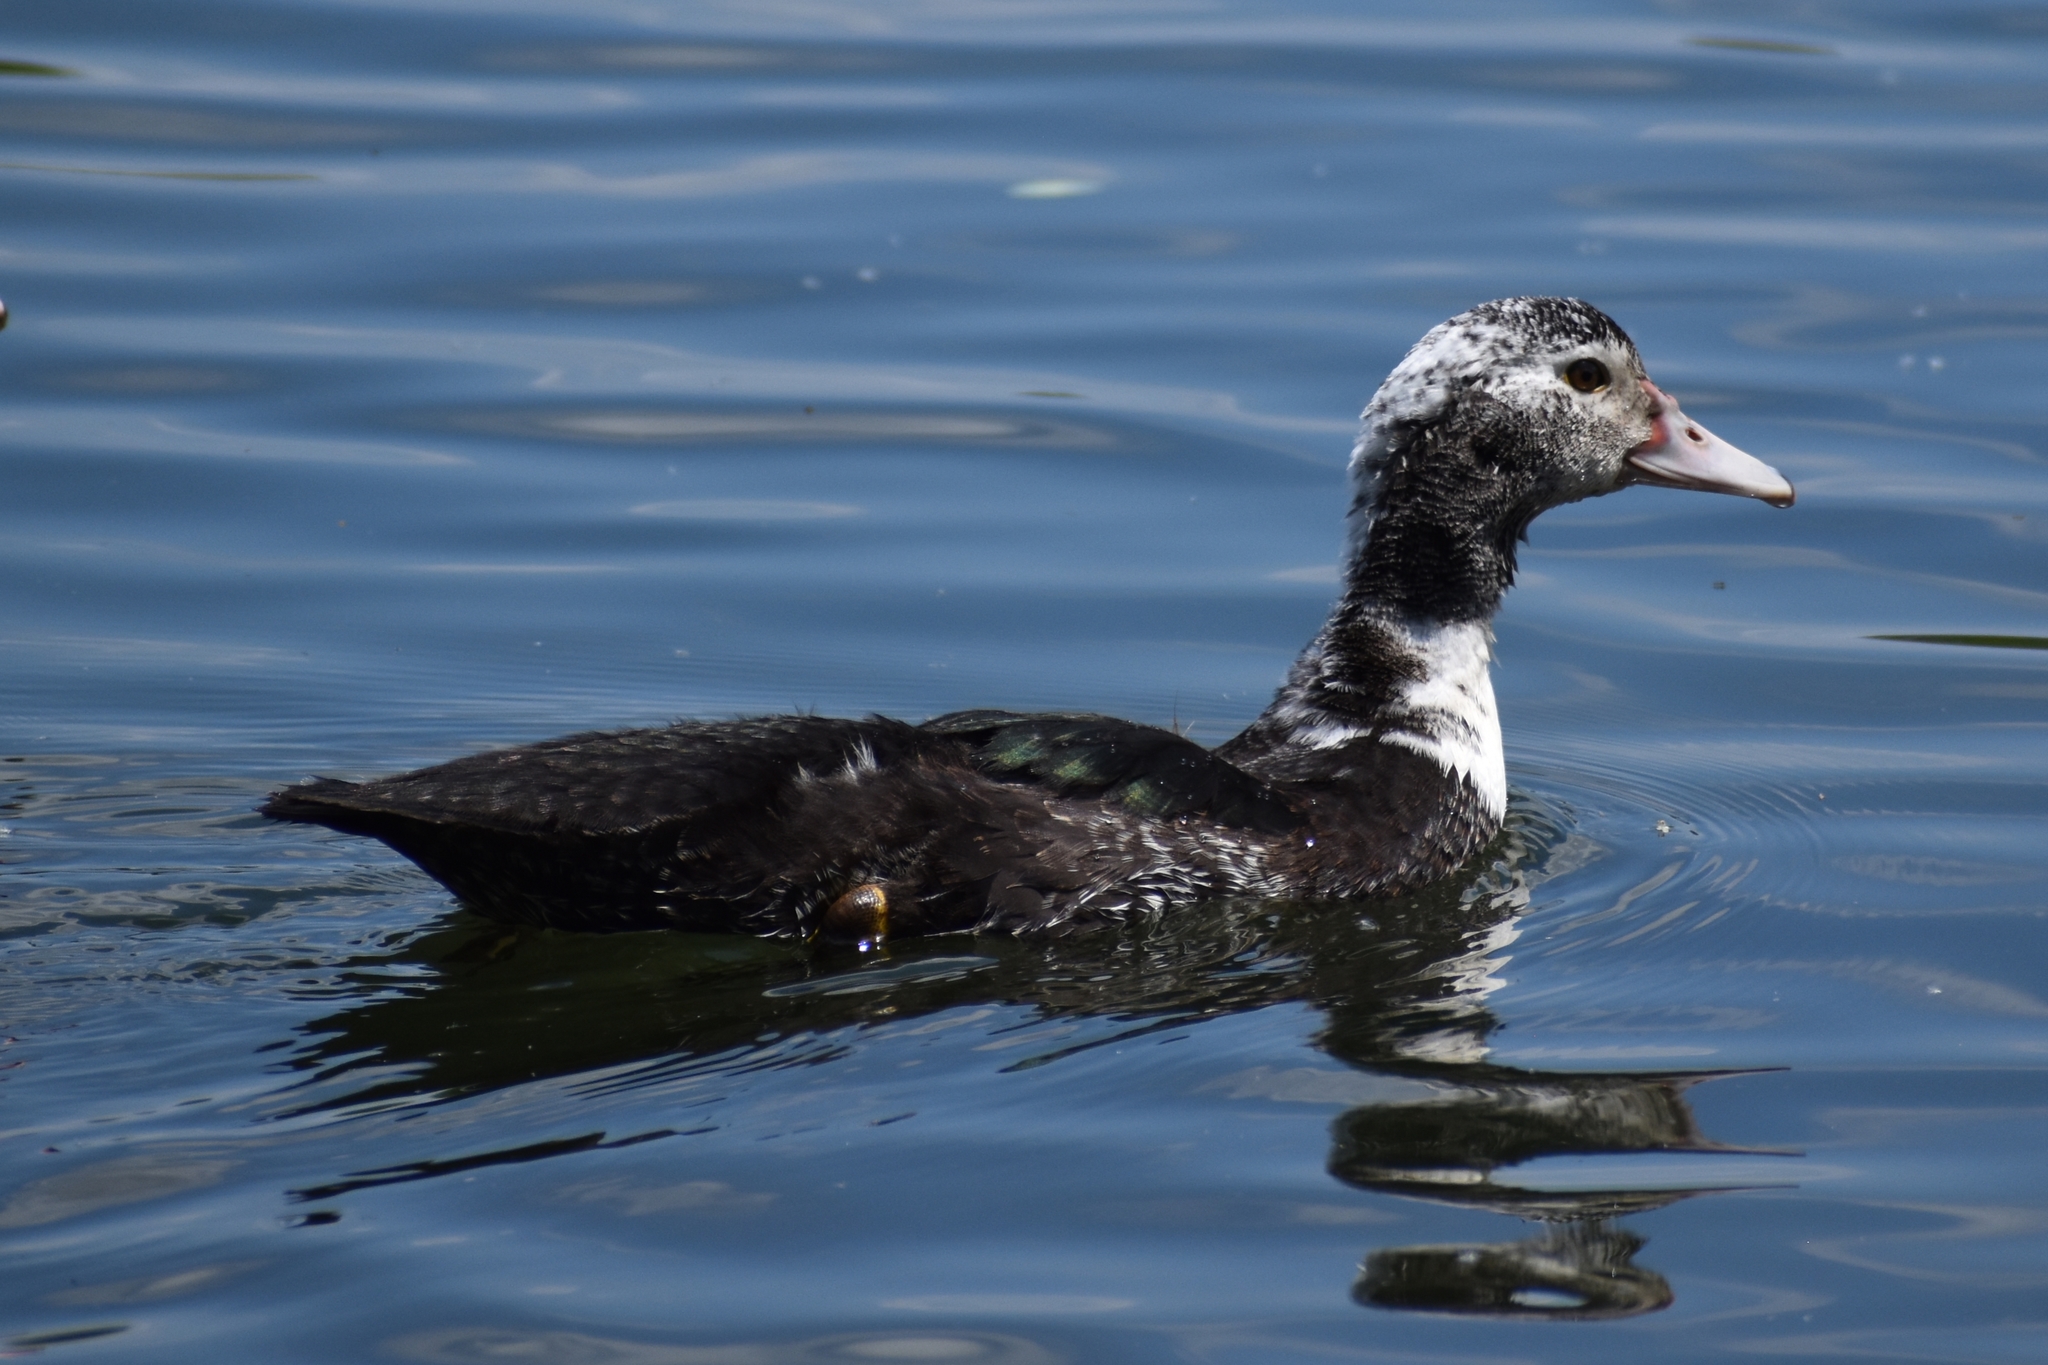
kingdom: Animalia
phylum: Chordata
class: Aves
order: Anseriformes
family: Anatidae
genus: Cairina
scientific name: Cairina moschata
